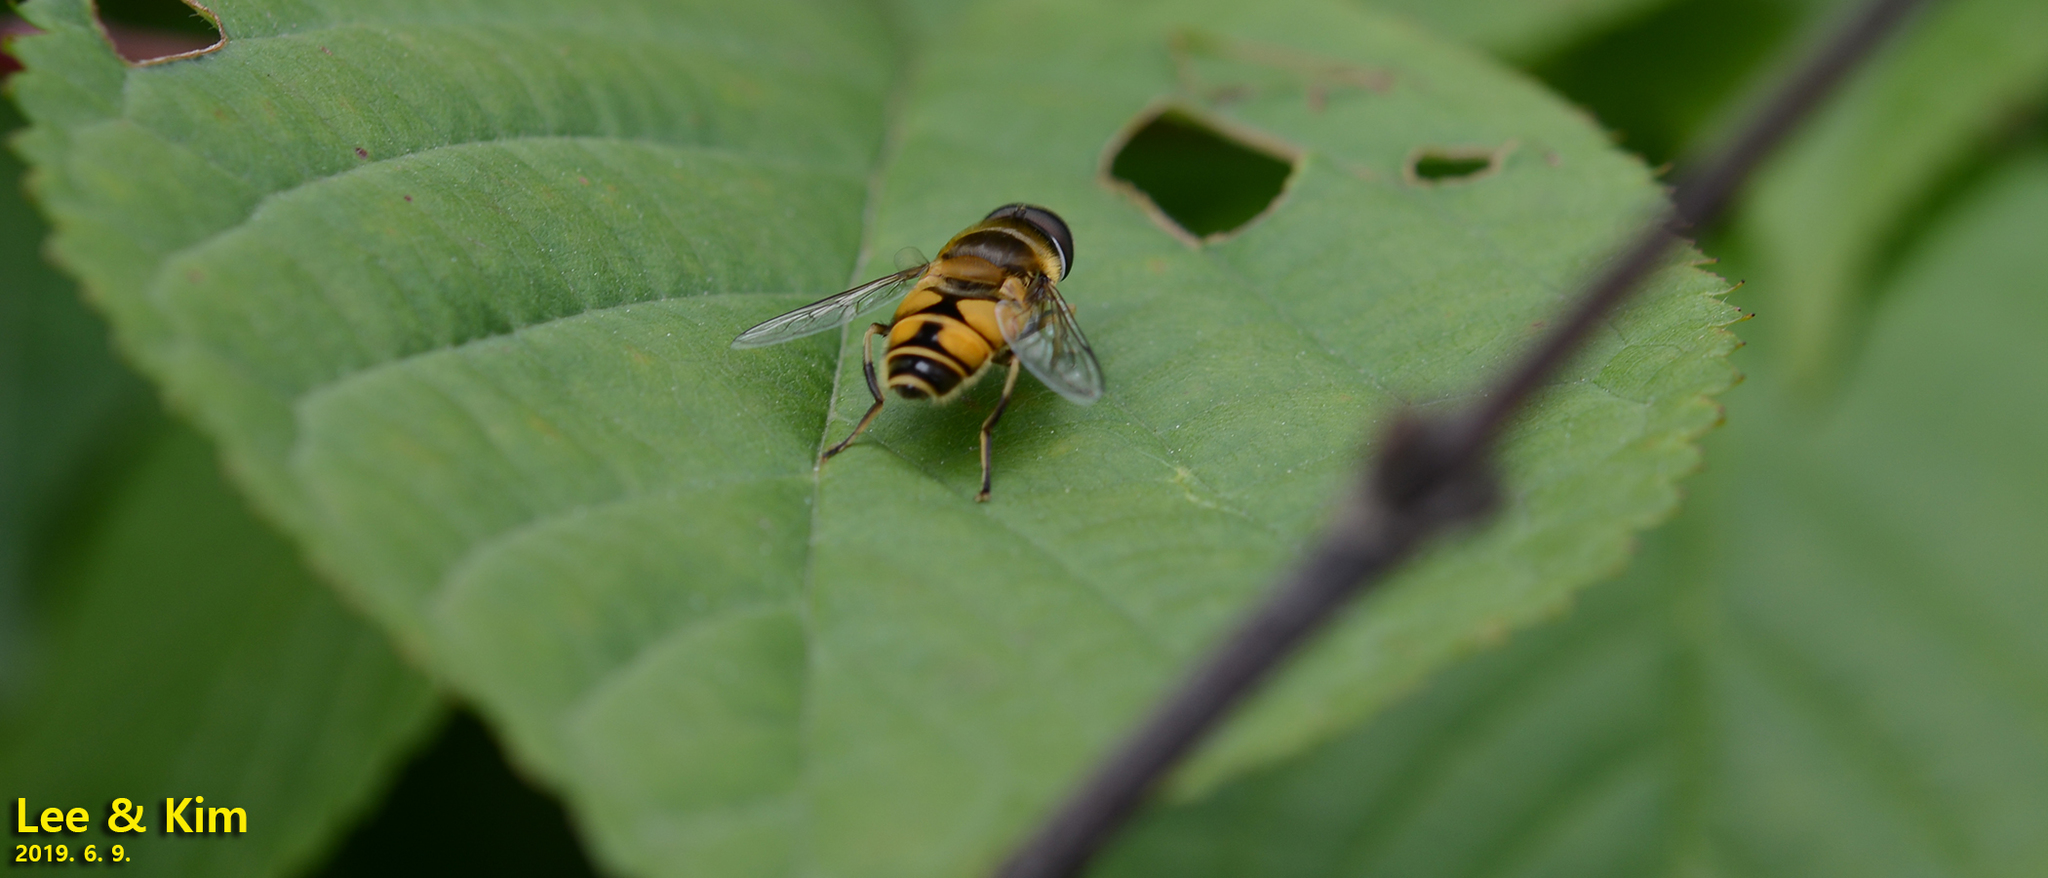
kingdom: Animalia
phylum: Arthropoda
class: Insecta
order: Diptera
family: Syrphidae
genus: Eristalis
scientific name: Eristalis kyokoae
